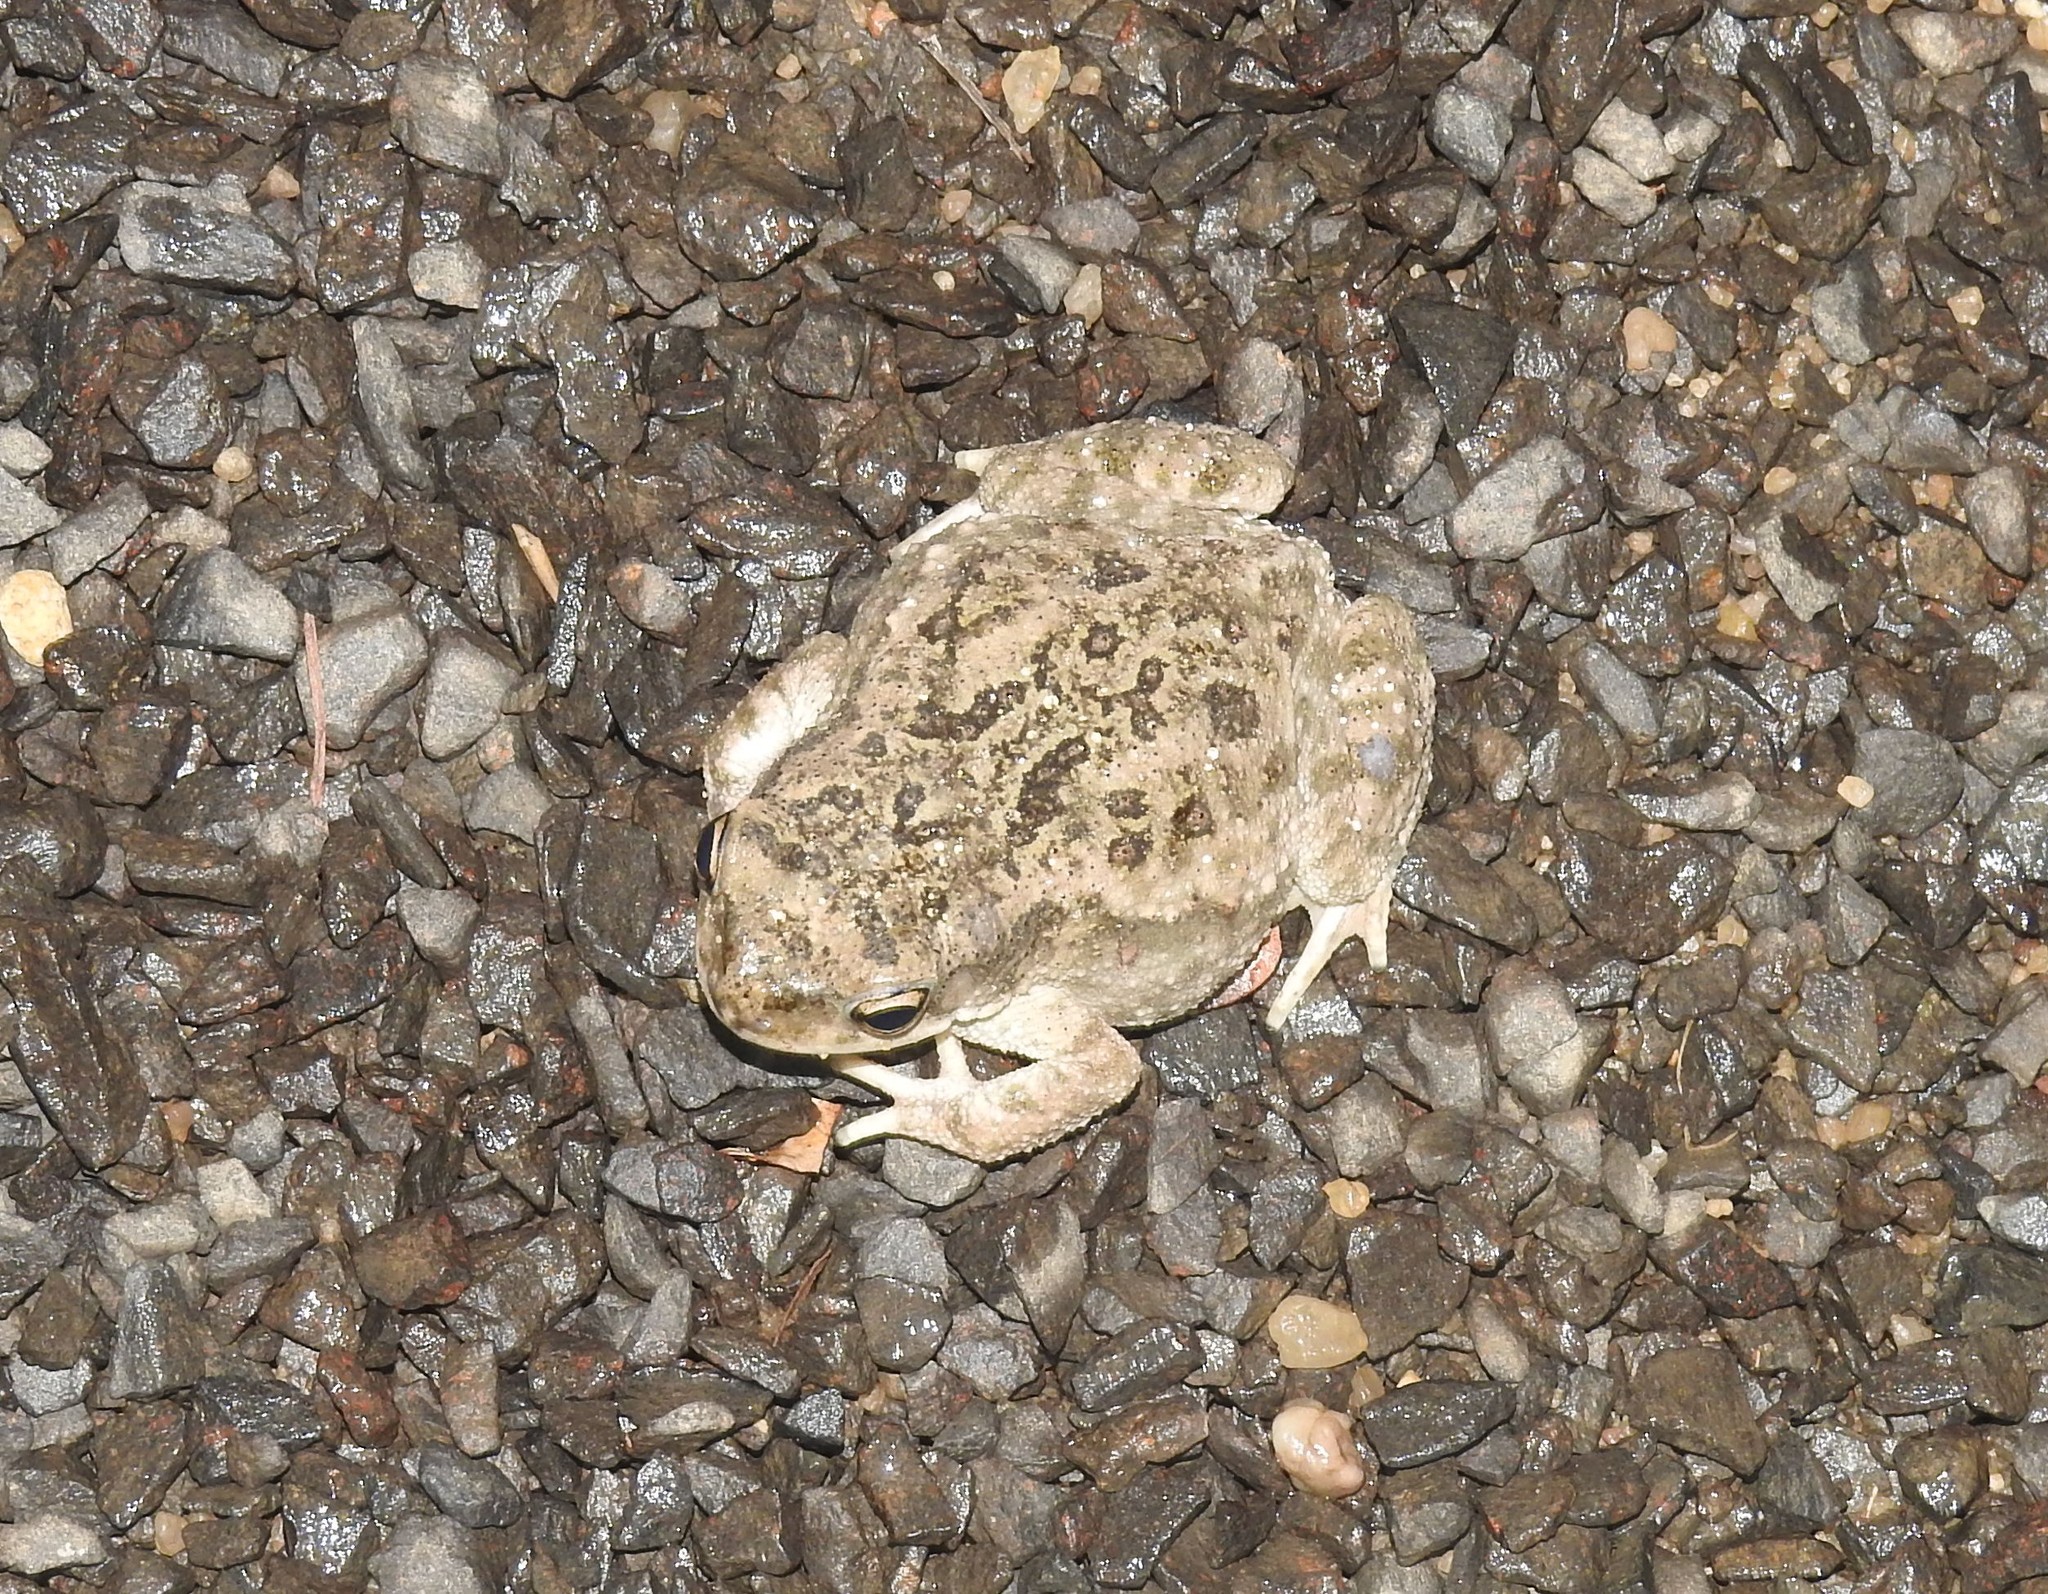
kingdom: Animalia
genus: Firouzophrynus
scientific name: Firouzophrynus
